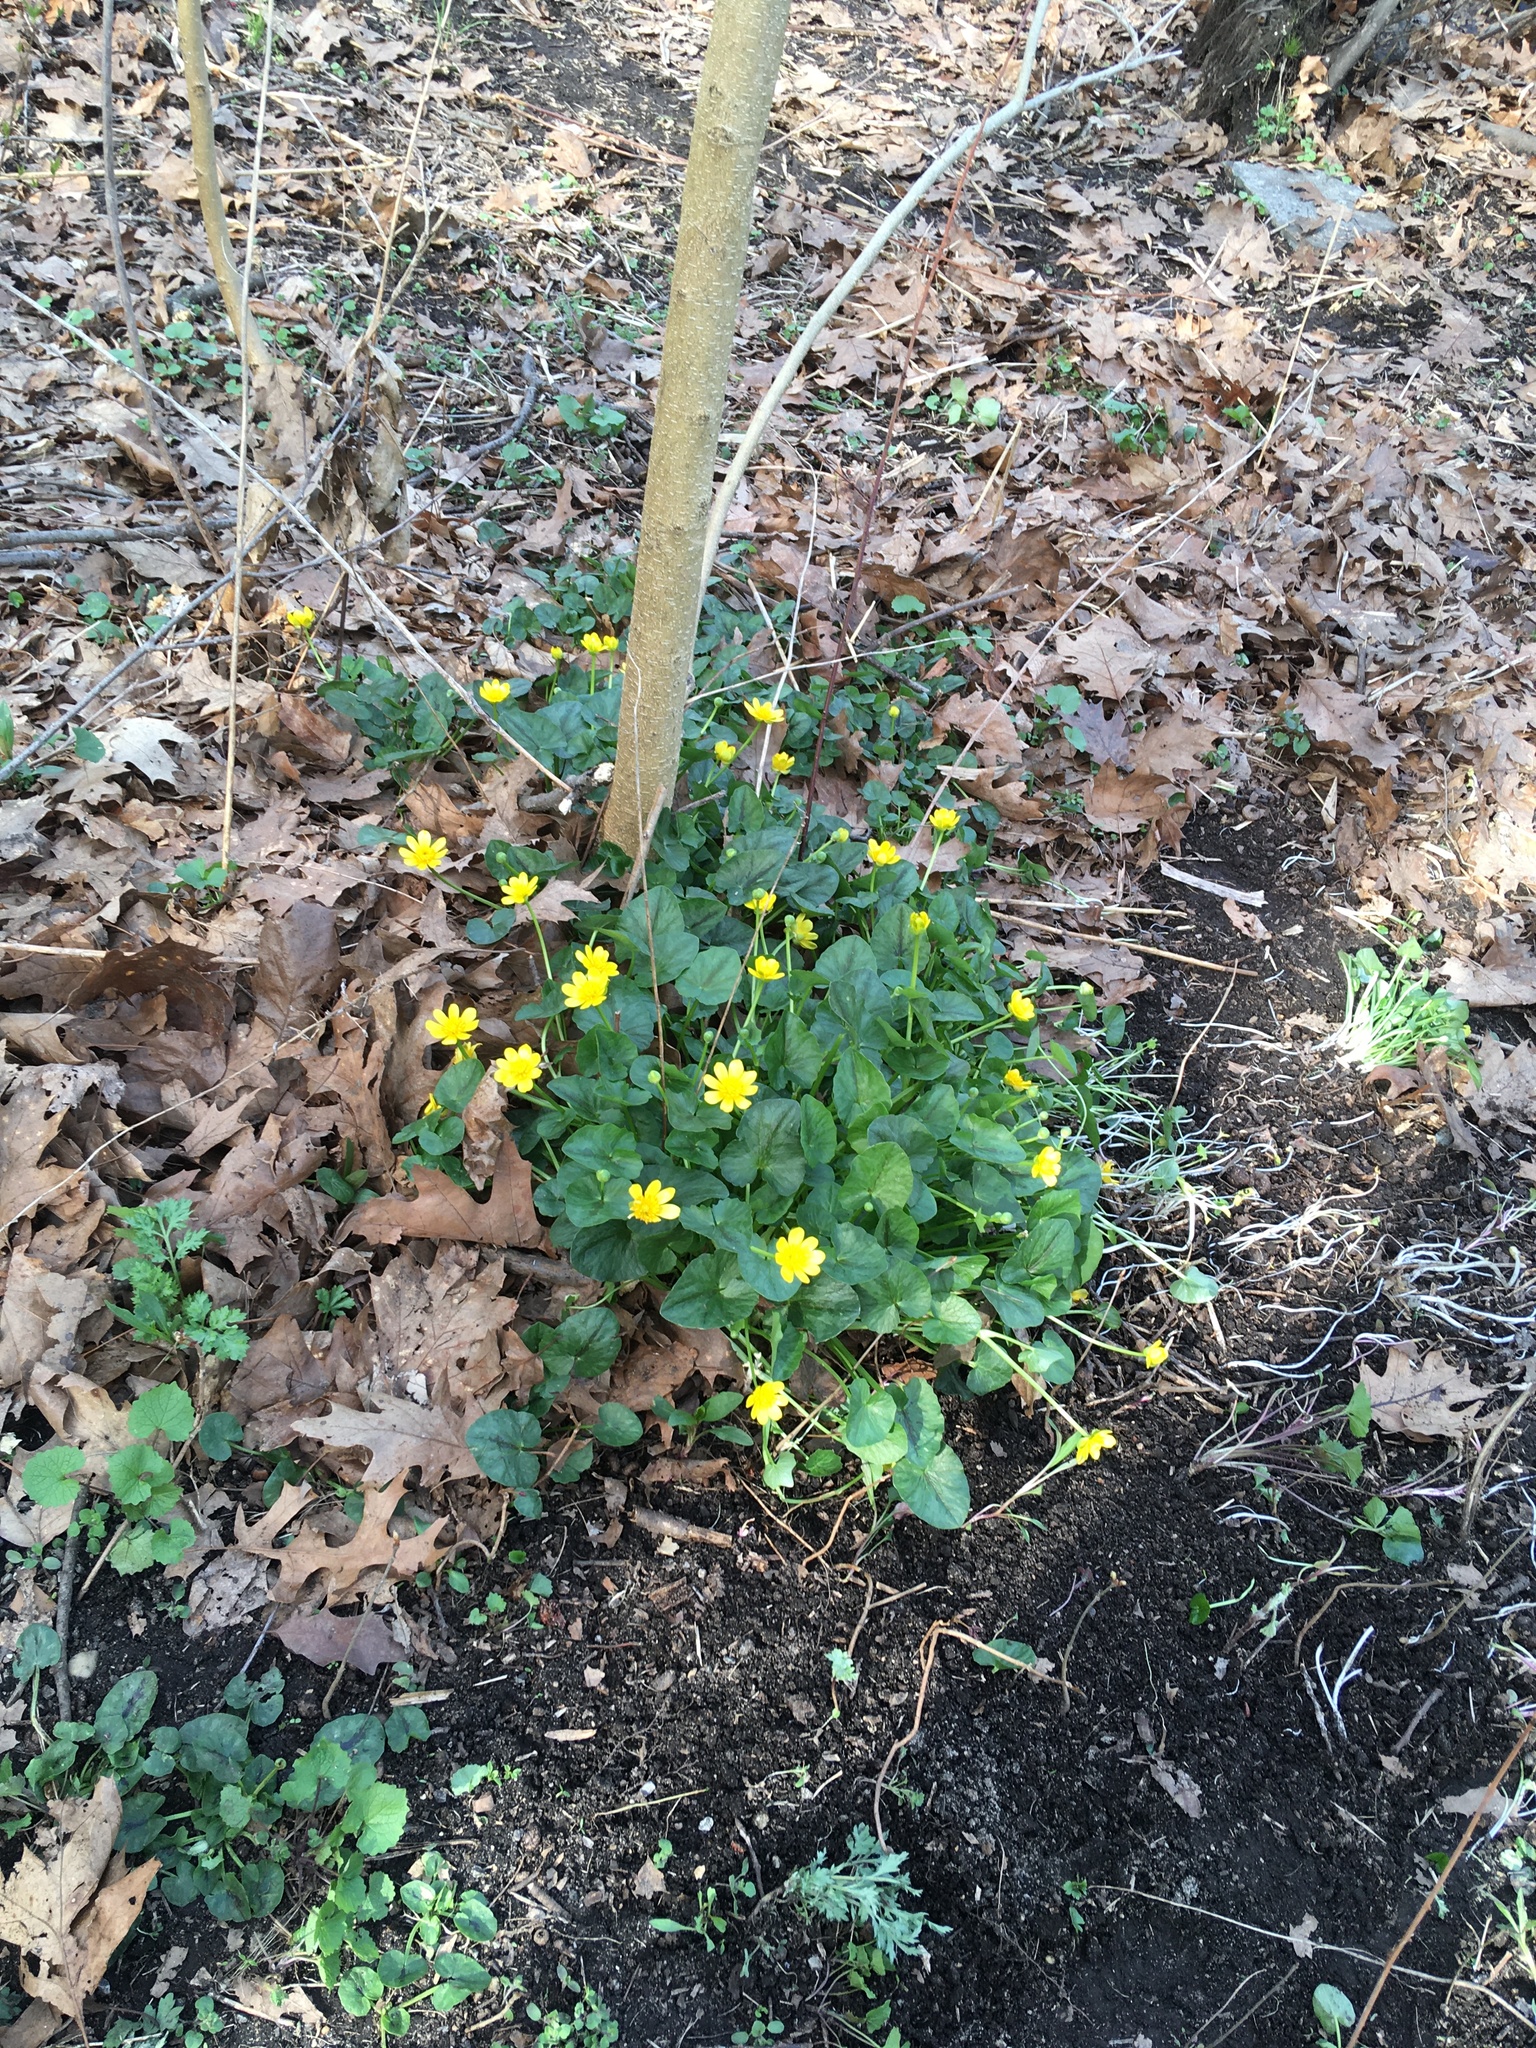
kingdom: Plantae
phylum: Tracheophyta
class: Magnoliopsida
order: Ranunculales
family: Ranunculaceae
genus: Ficaria
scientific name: Ficaria verna
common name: Lesser celandine
